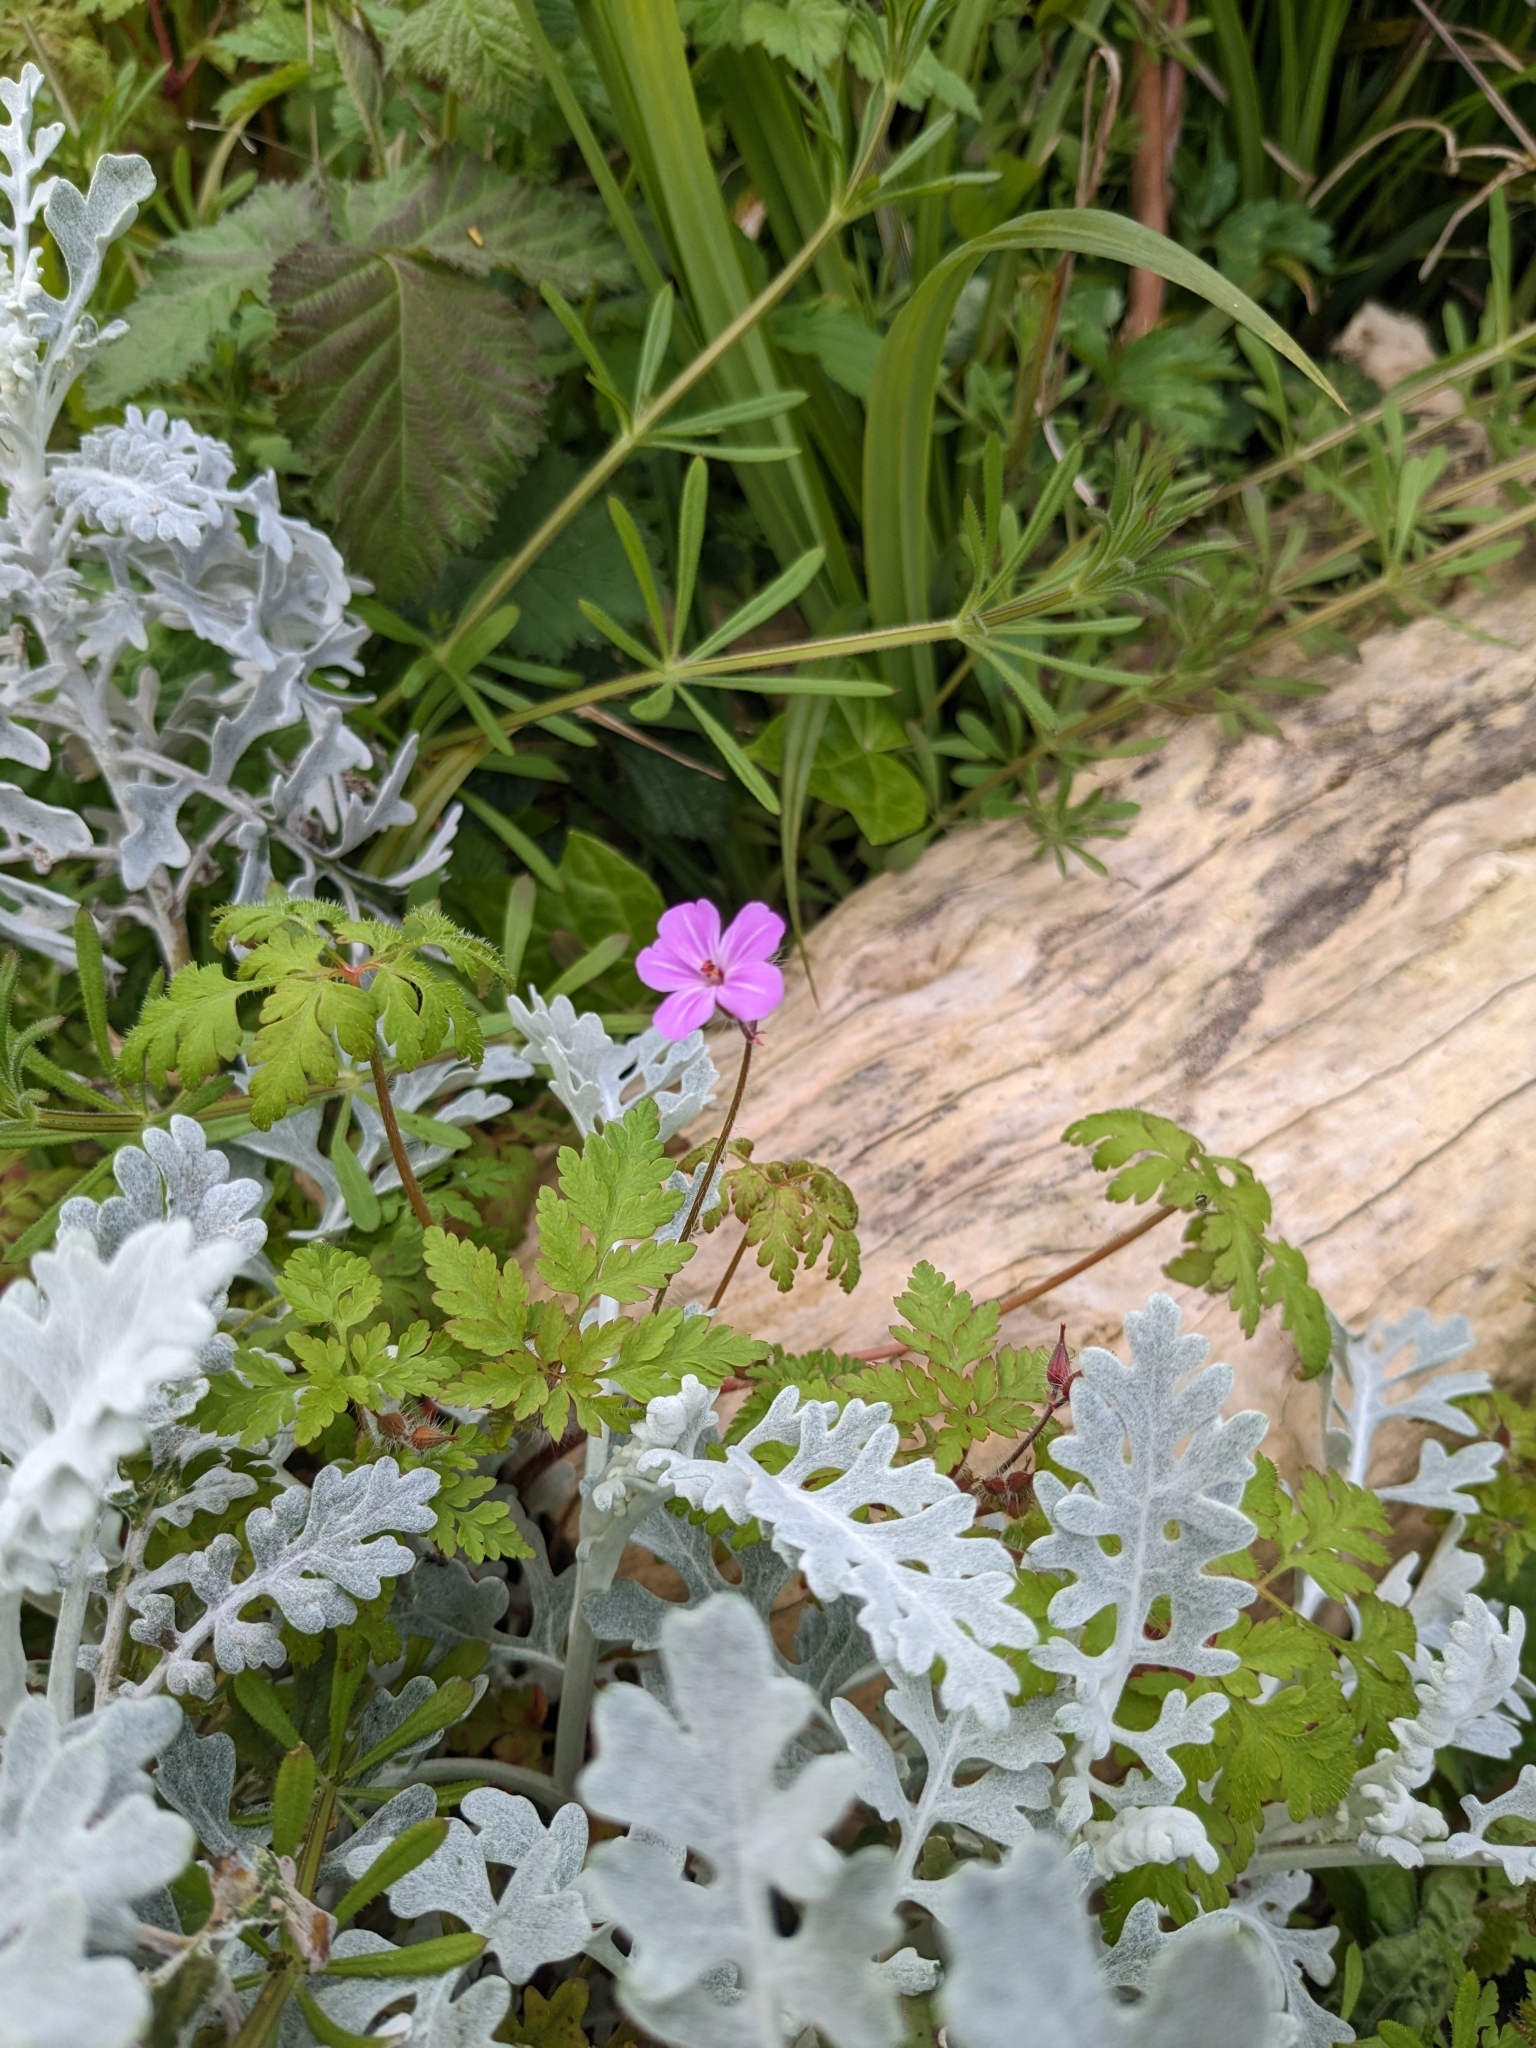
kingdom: Plantae
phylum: Tracheophyta
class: Magnoliopsida
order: Geraniales
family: Geraniaceae
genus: Geranium
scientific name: Geranium robertianum
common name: Herb-robert
